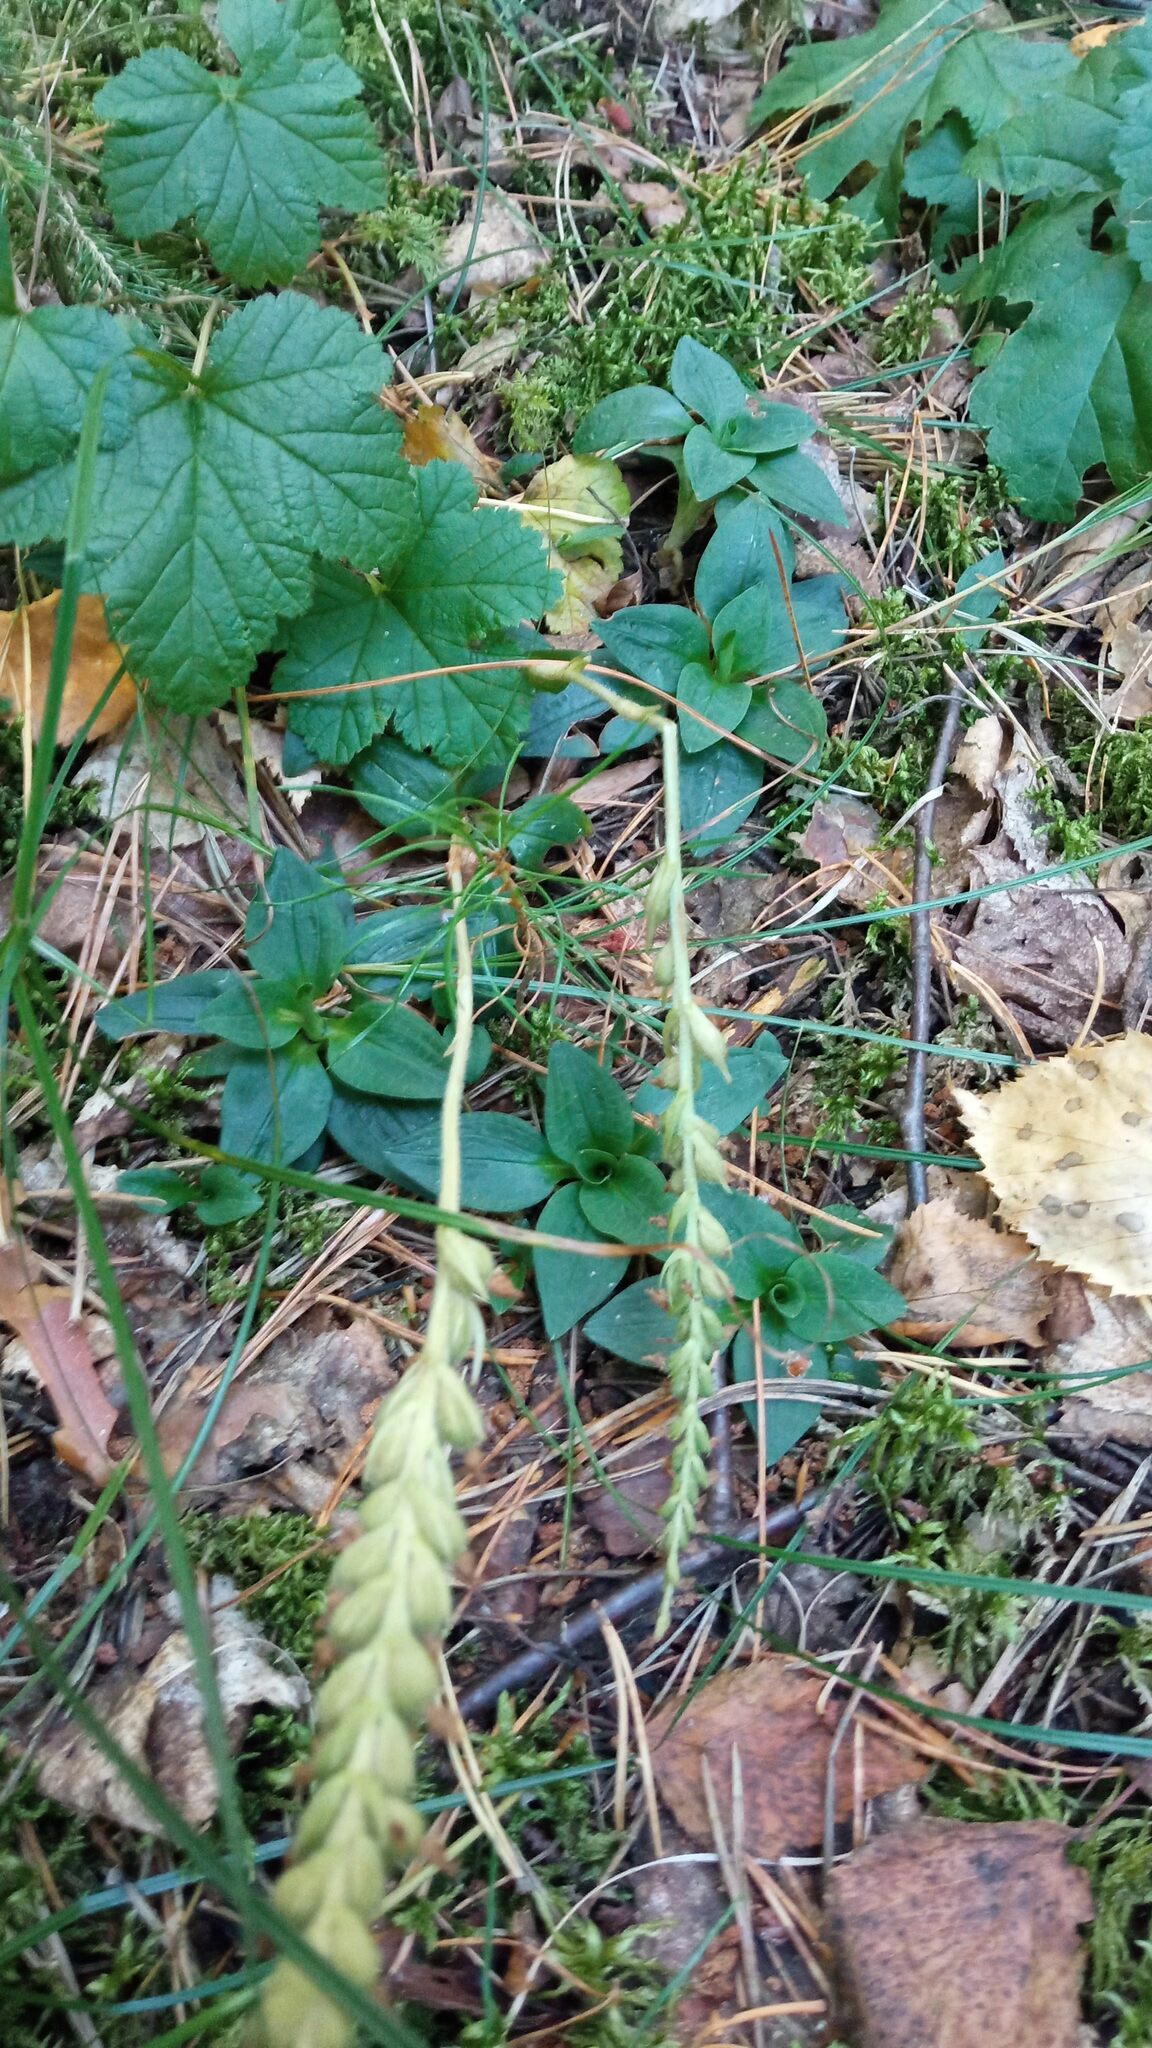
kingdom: Plantae
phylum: Tracheophyta
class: Liliopsida
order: Asparagales
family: Orchidaceae
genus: Goodyera
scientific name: Goodyera repens
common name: Creeping lady's-tresses
